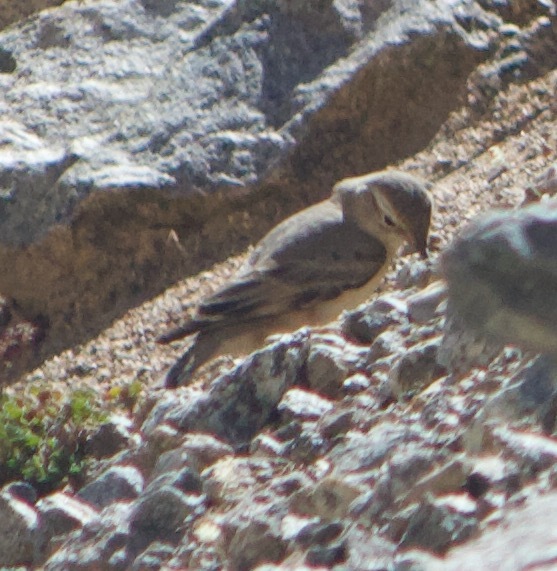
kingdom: Animalia
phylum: Chordata
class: Aves
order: Passeriformes
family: Furnariidae
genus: Geositta
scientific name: Geositta rufipennis
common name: Rufous-banded miner
